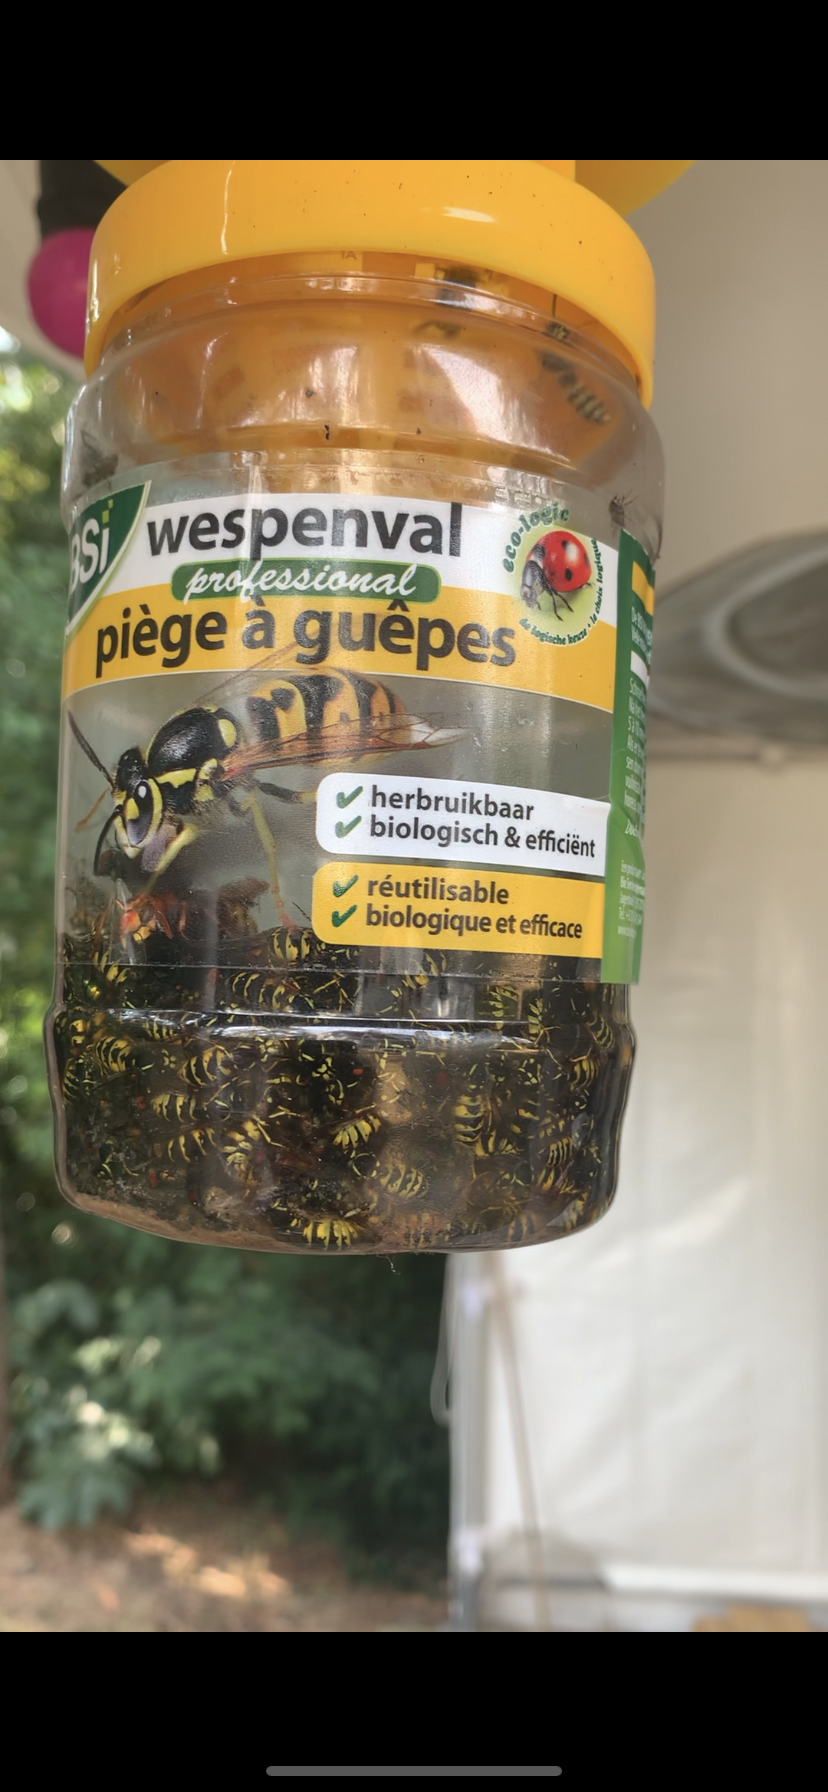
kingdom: Animalia
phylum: Arthropoda
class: Insecta
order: Hymenoptera
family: Vespidae
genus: Vespa
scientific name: Vespa crabro
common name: Hornet
